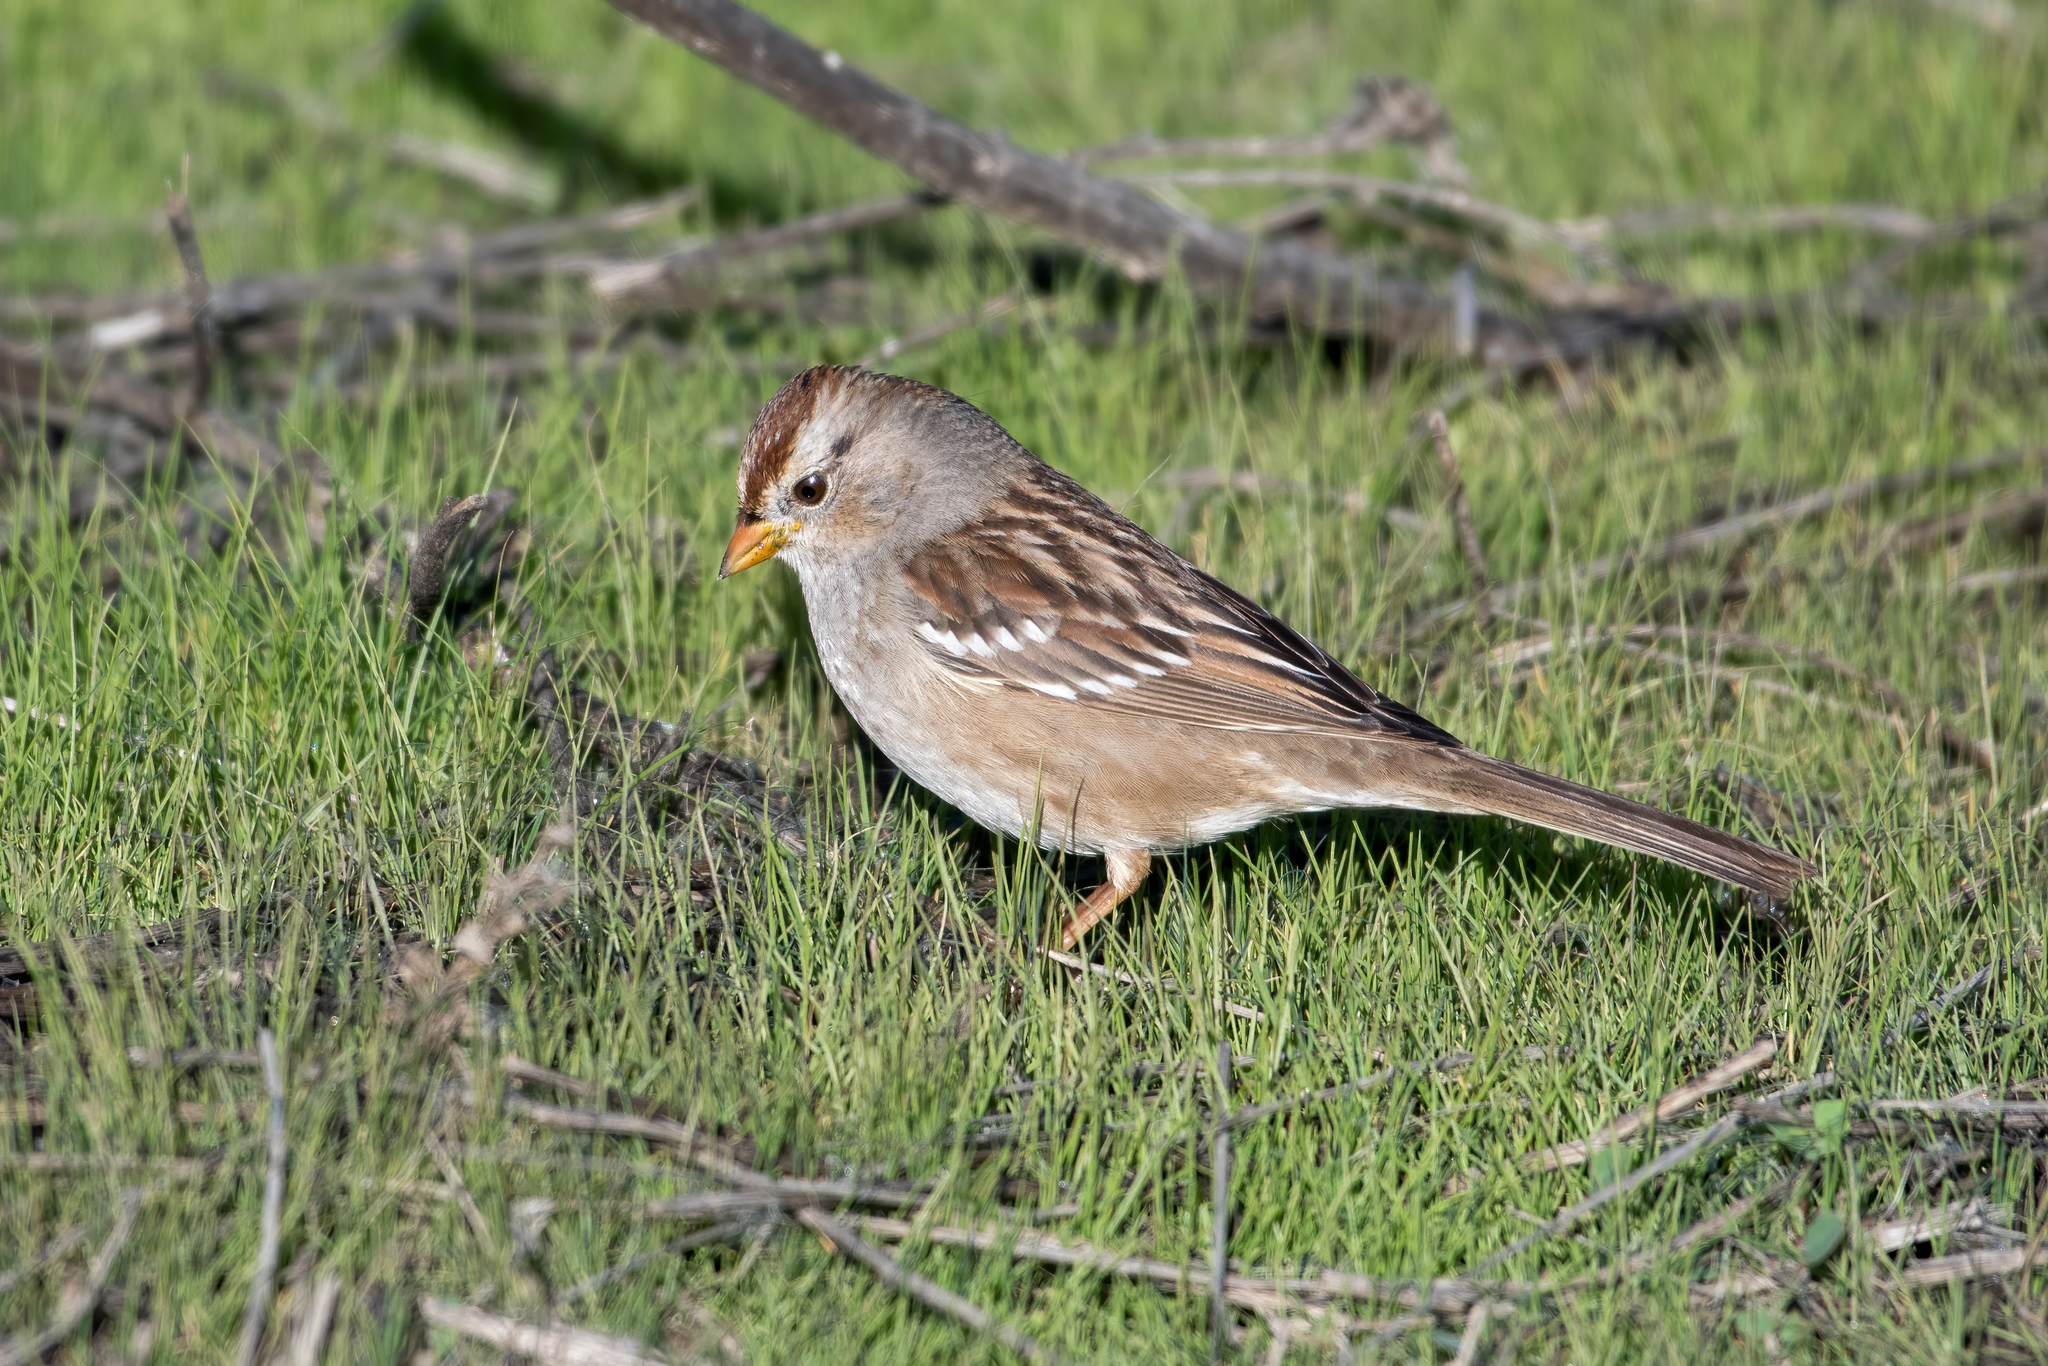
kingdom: Animalia
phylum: Chordata
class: Aves
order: Passeriformes
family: Passerellidae
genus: Zonotrichia
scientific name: Zonotrichia leucophrys
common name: White-crowned sparrow
